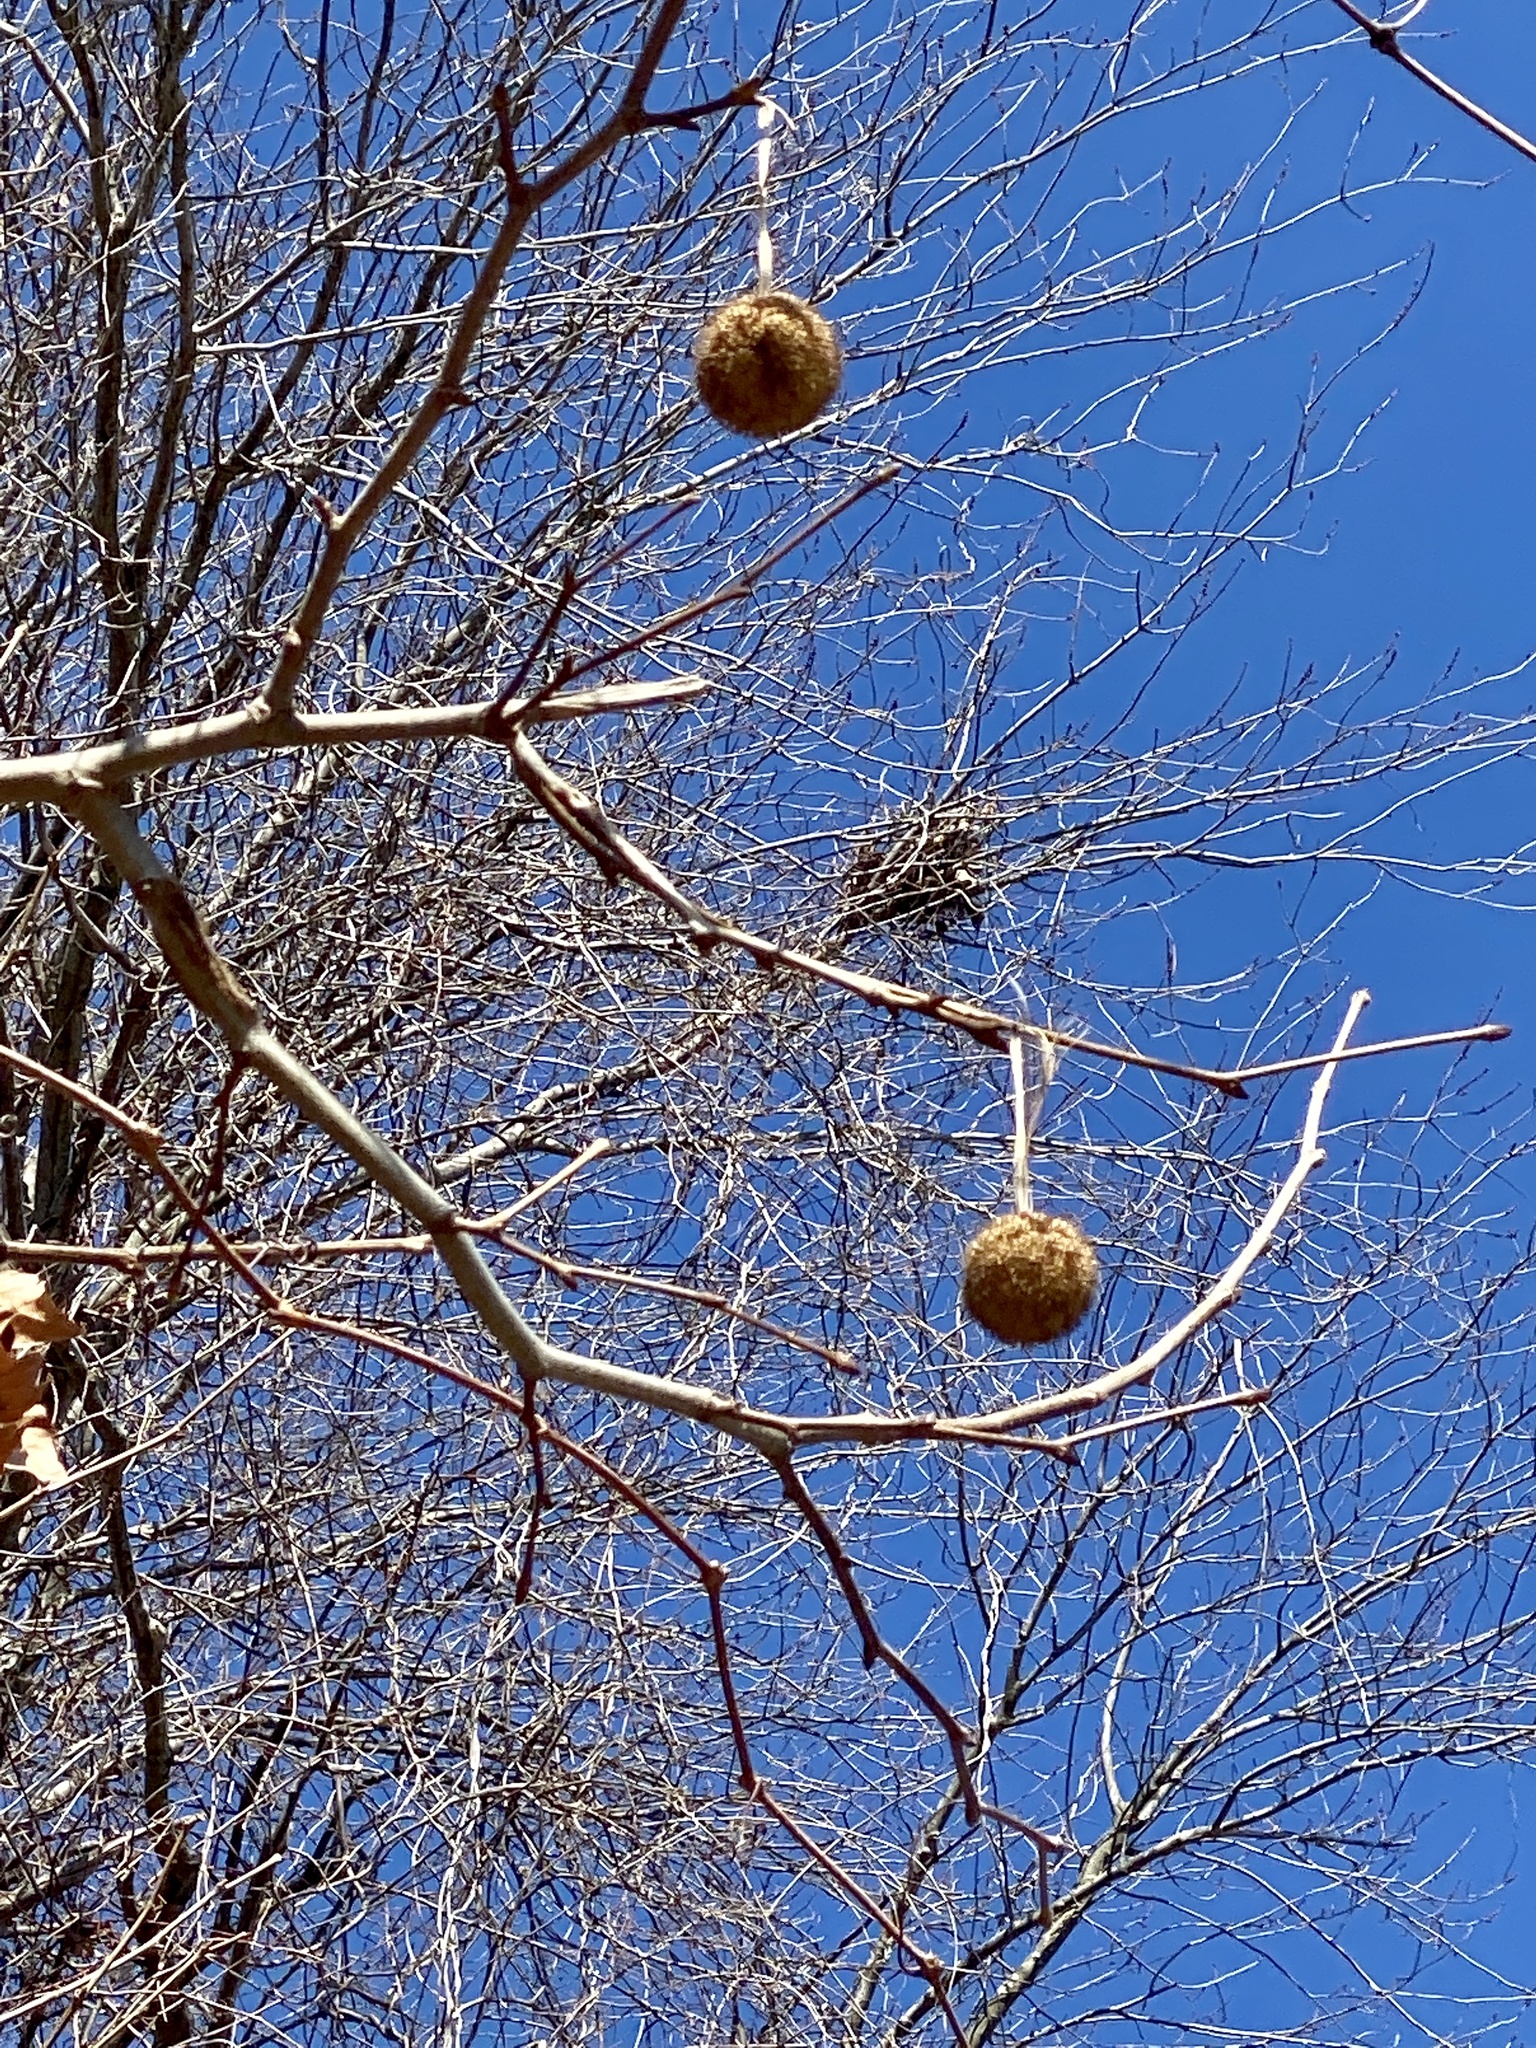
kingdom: Plantae
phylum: Tracheophyta
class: Magnoliopsida
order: Proteales
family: Platanaceae
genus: Platanus
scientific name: Platanus occidentalis
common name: American sycamore
